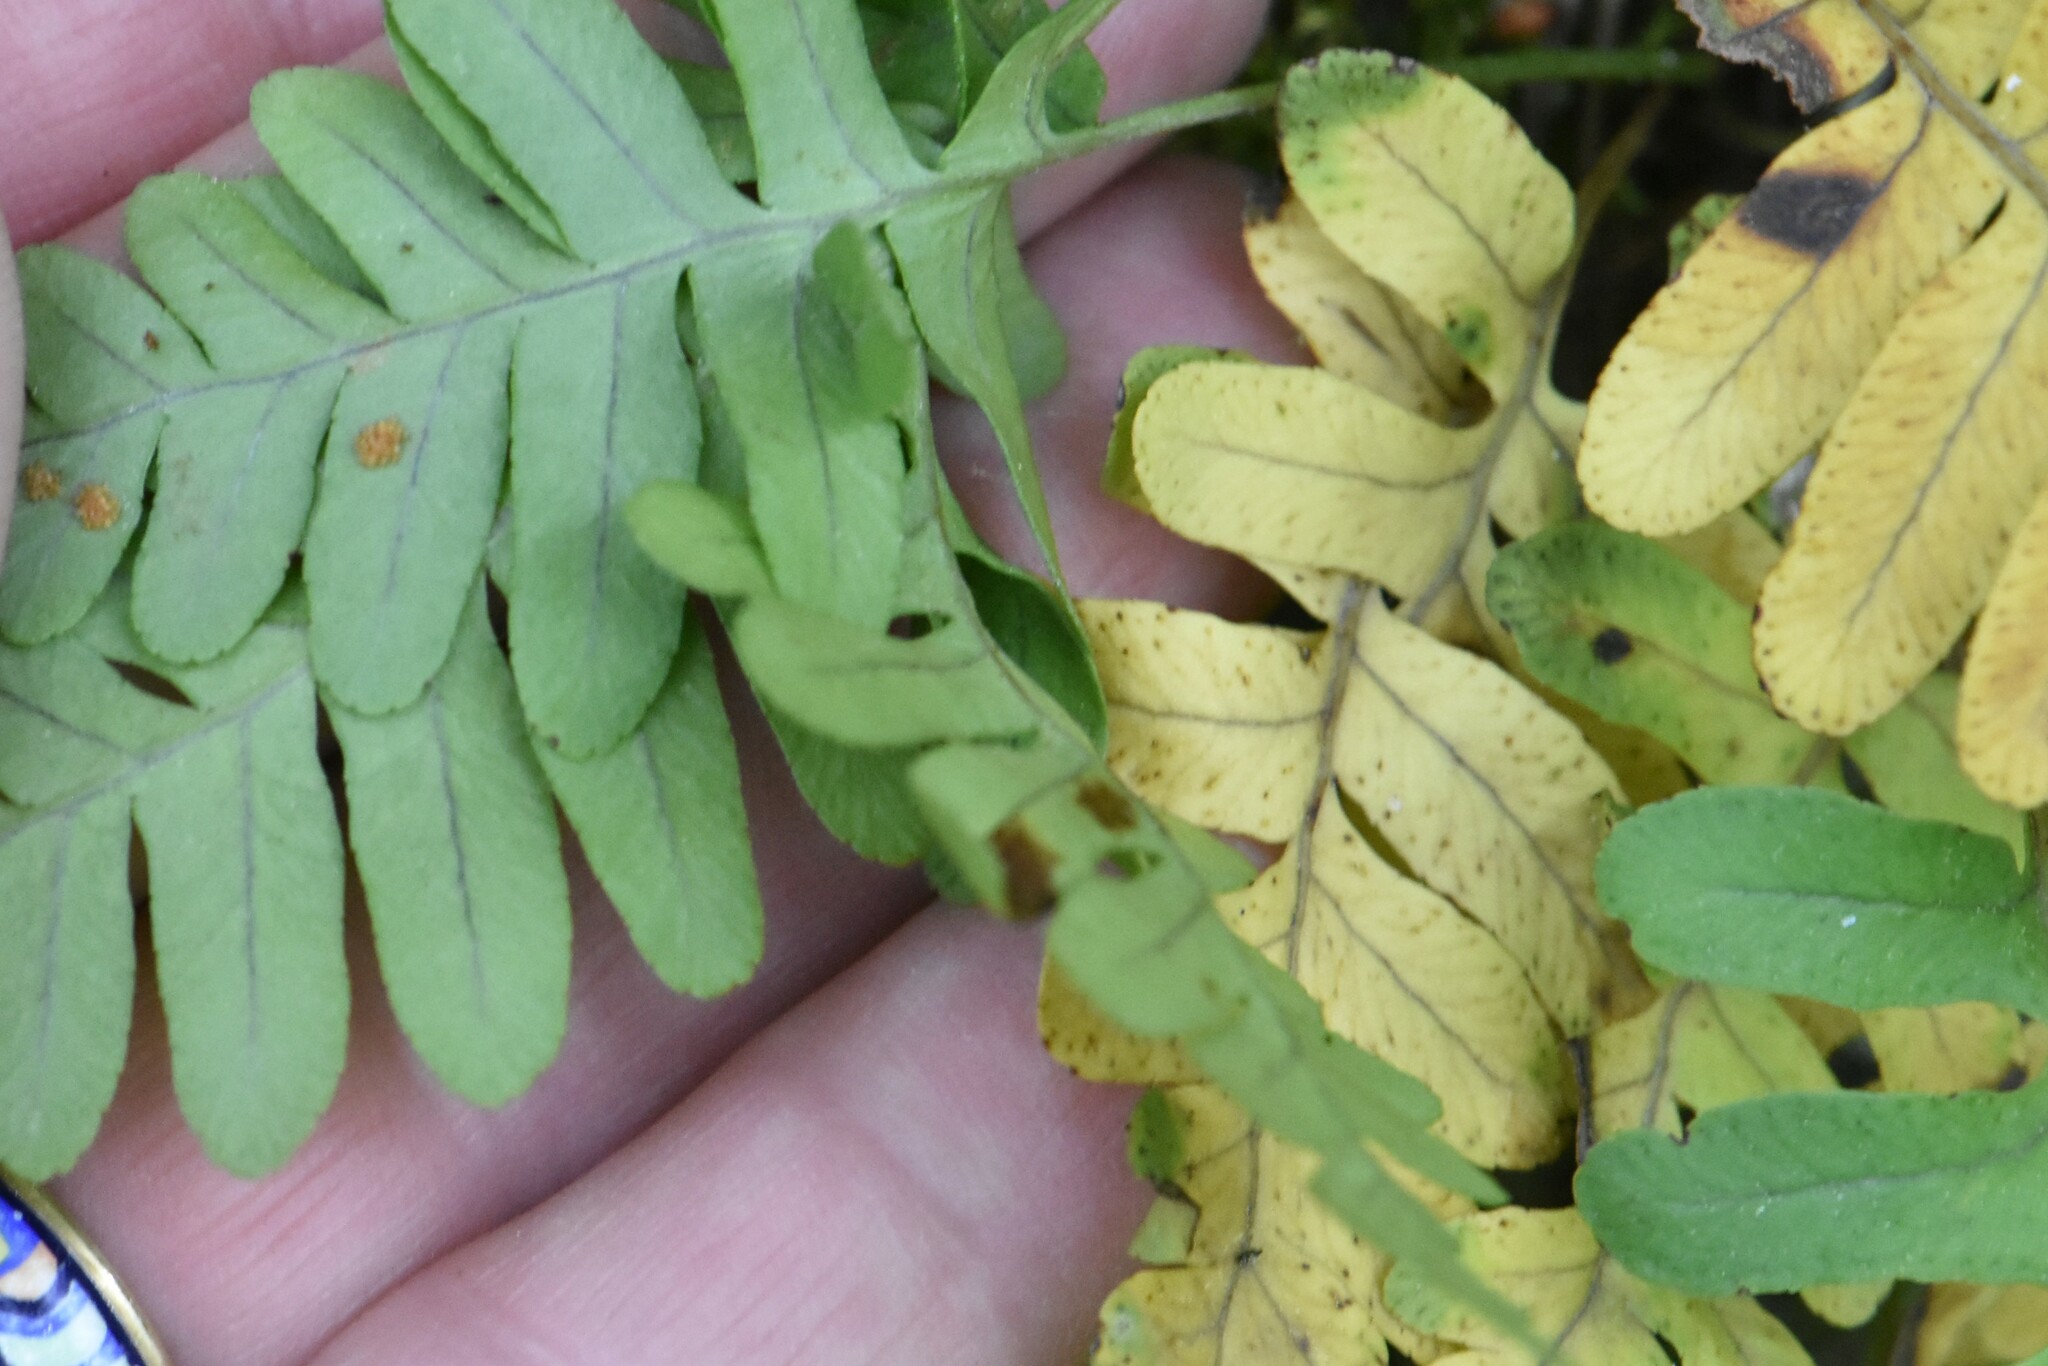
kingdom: Plantae
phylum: Tracheophyta
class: Polypodiopsida
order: Polypodiales
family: Polypodiaceae
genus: Polypodium
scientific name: Polypodium vulgare
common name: Common polypody
